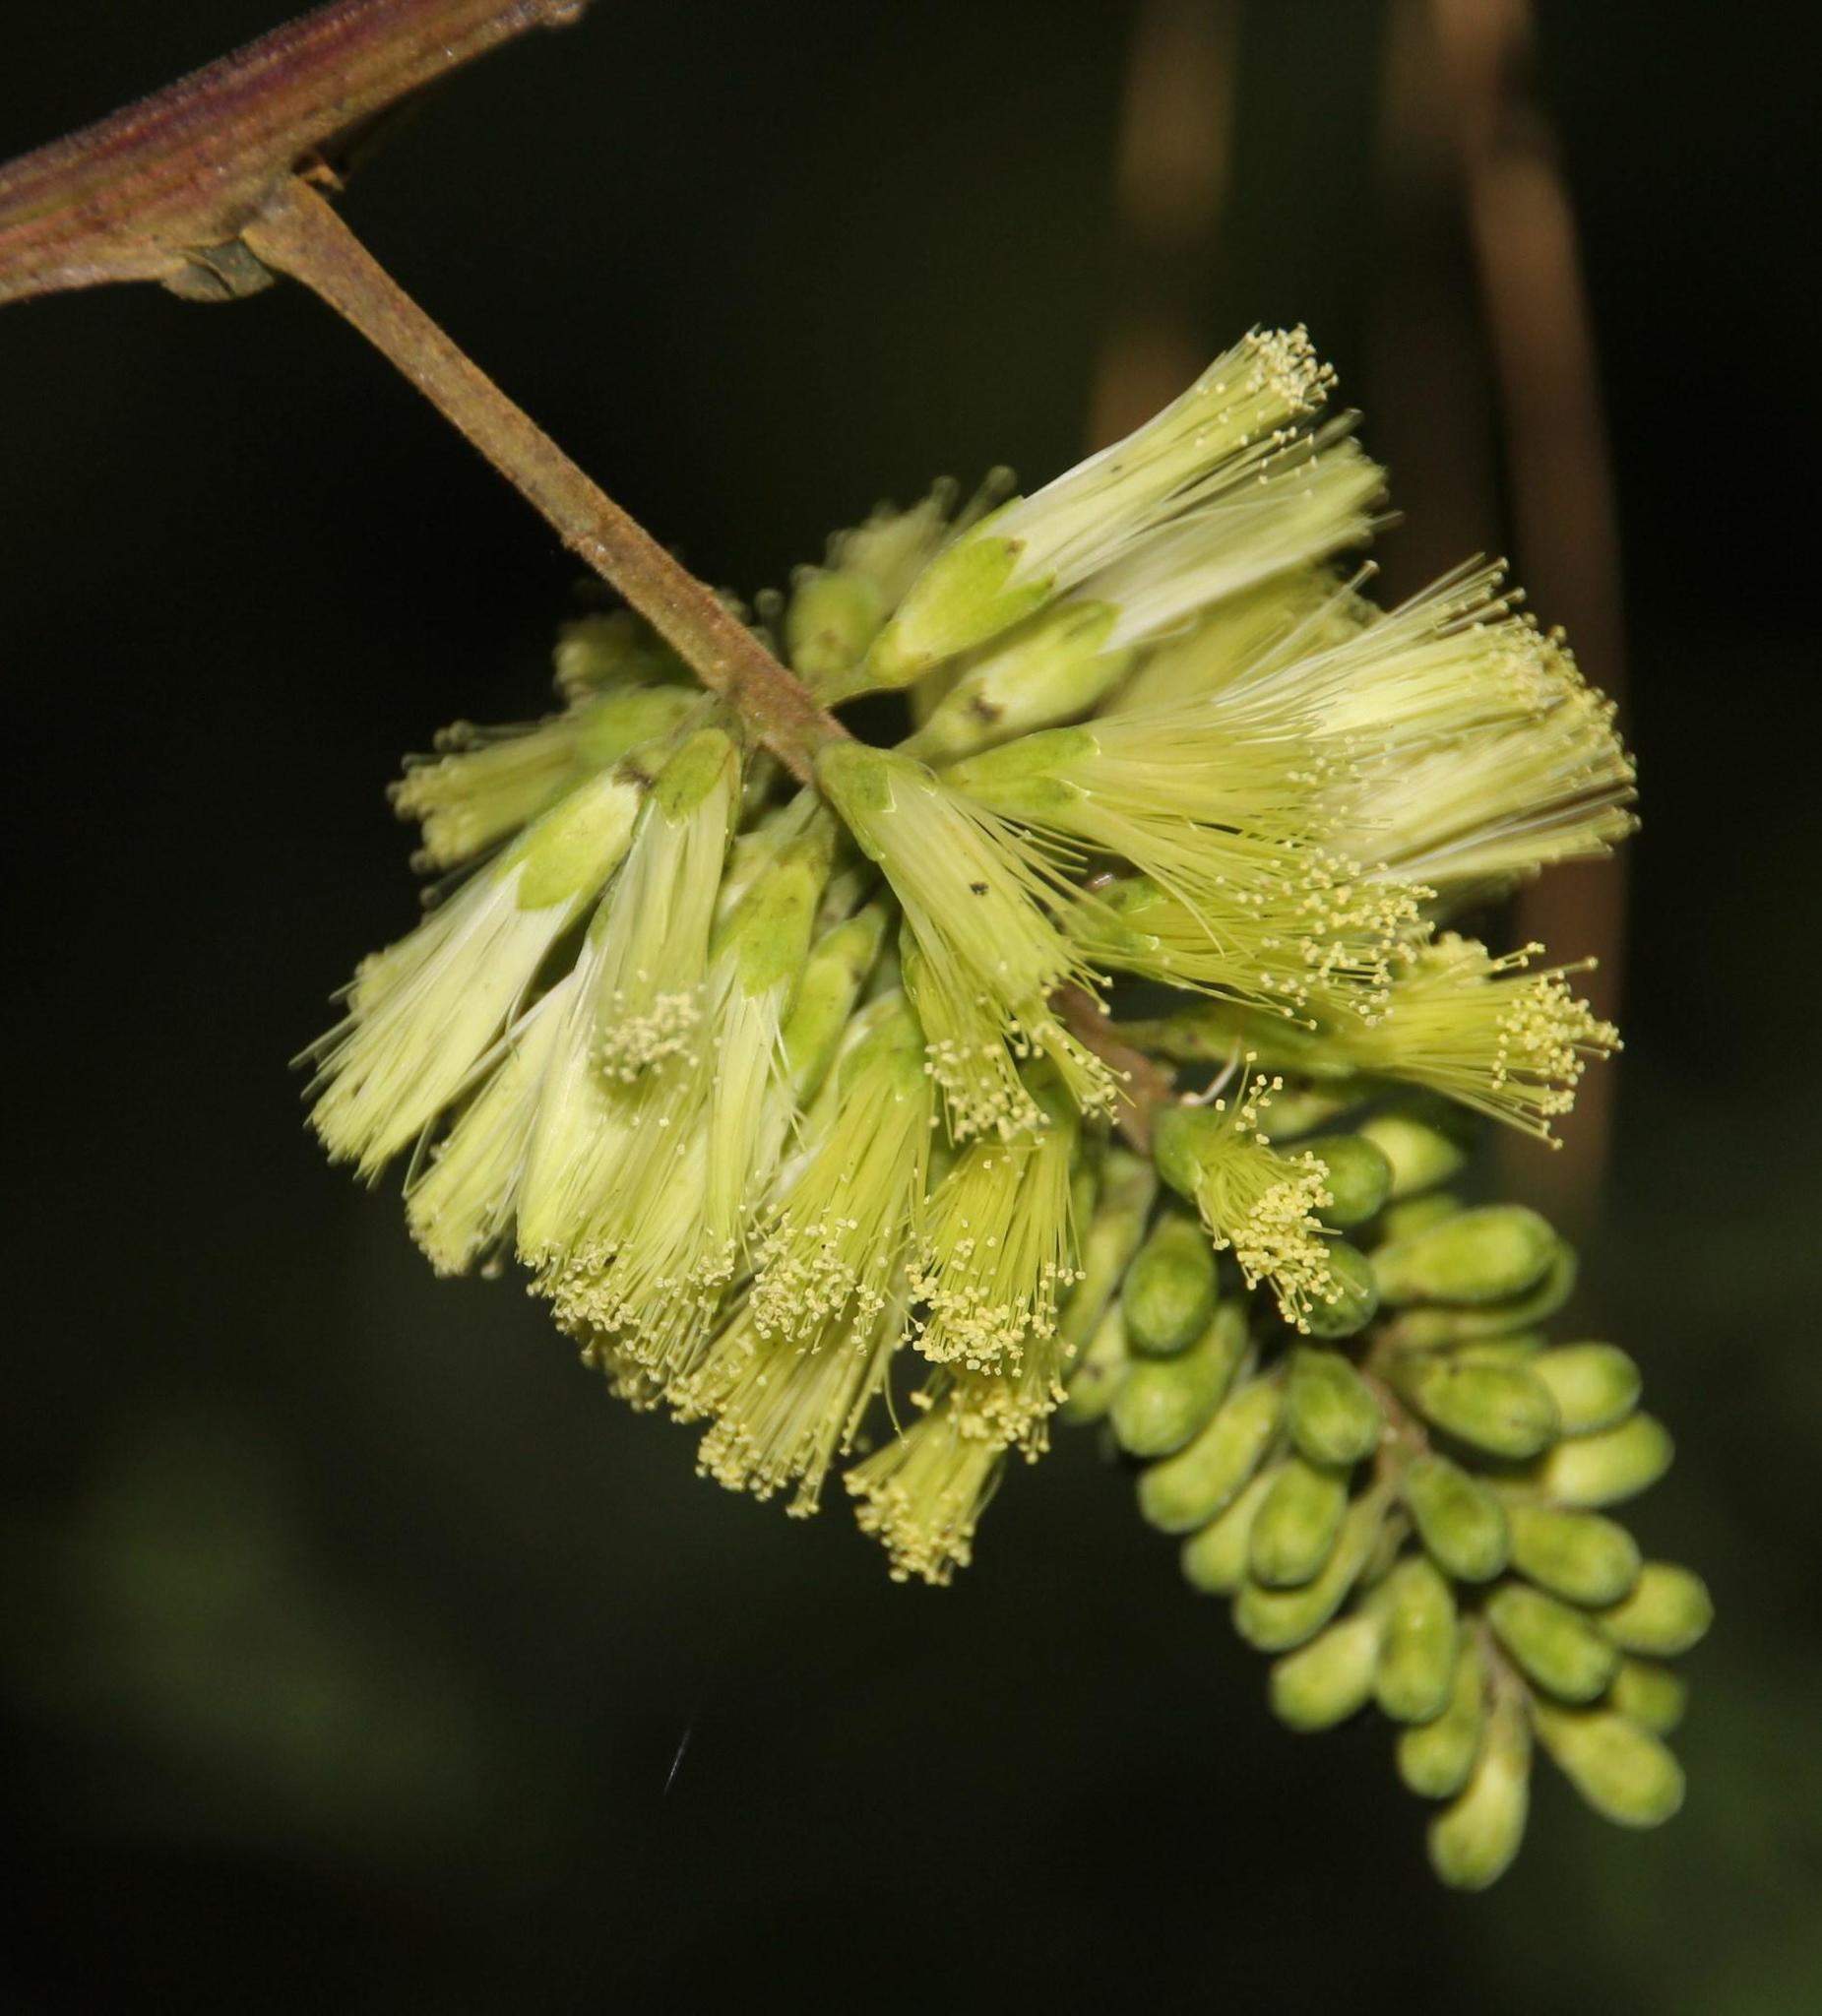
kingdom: Plantae
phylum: Tracheophyta
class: Magnoliopsida
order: Fabales
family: Fabaceae
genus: Paraserianthes
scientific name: Paraserianthes lophantha
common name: Plume albizia
